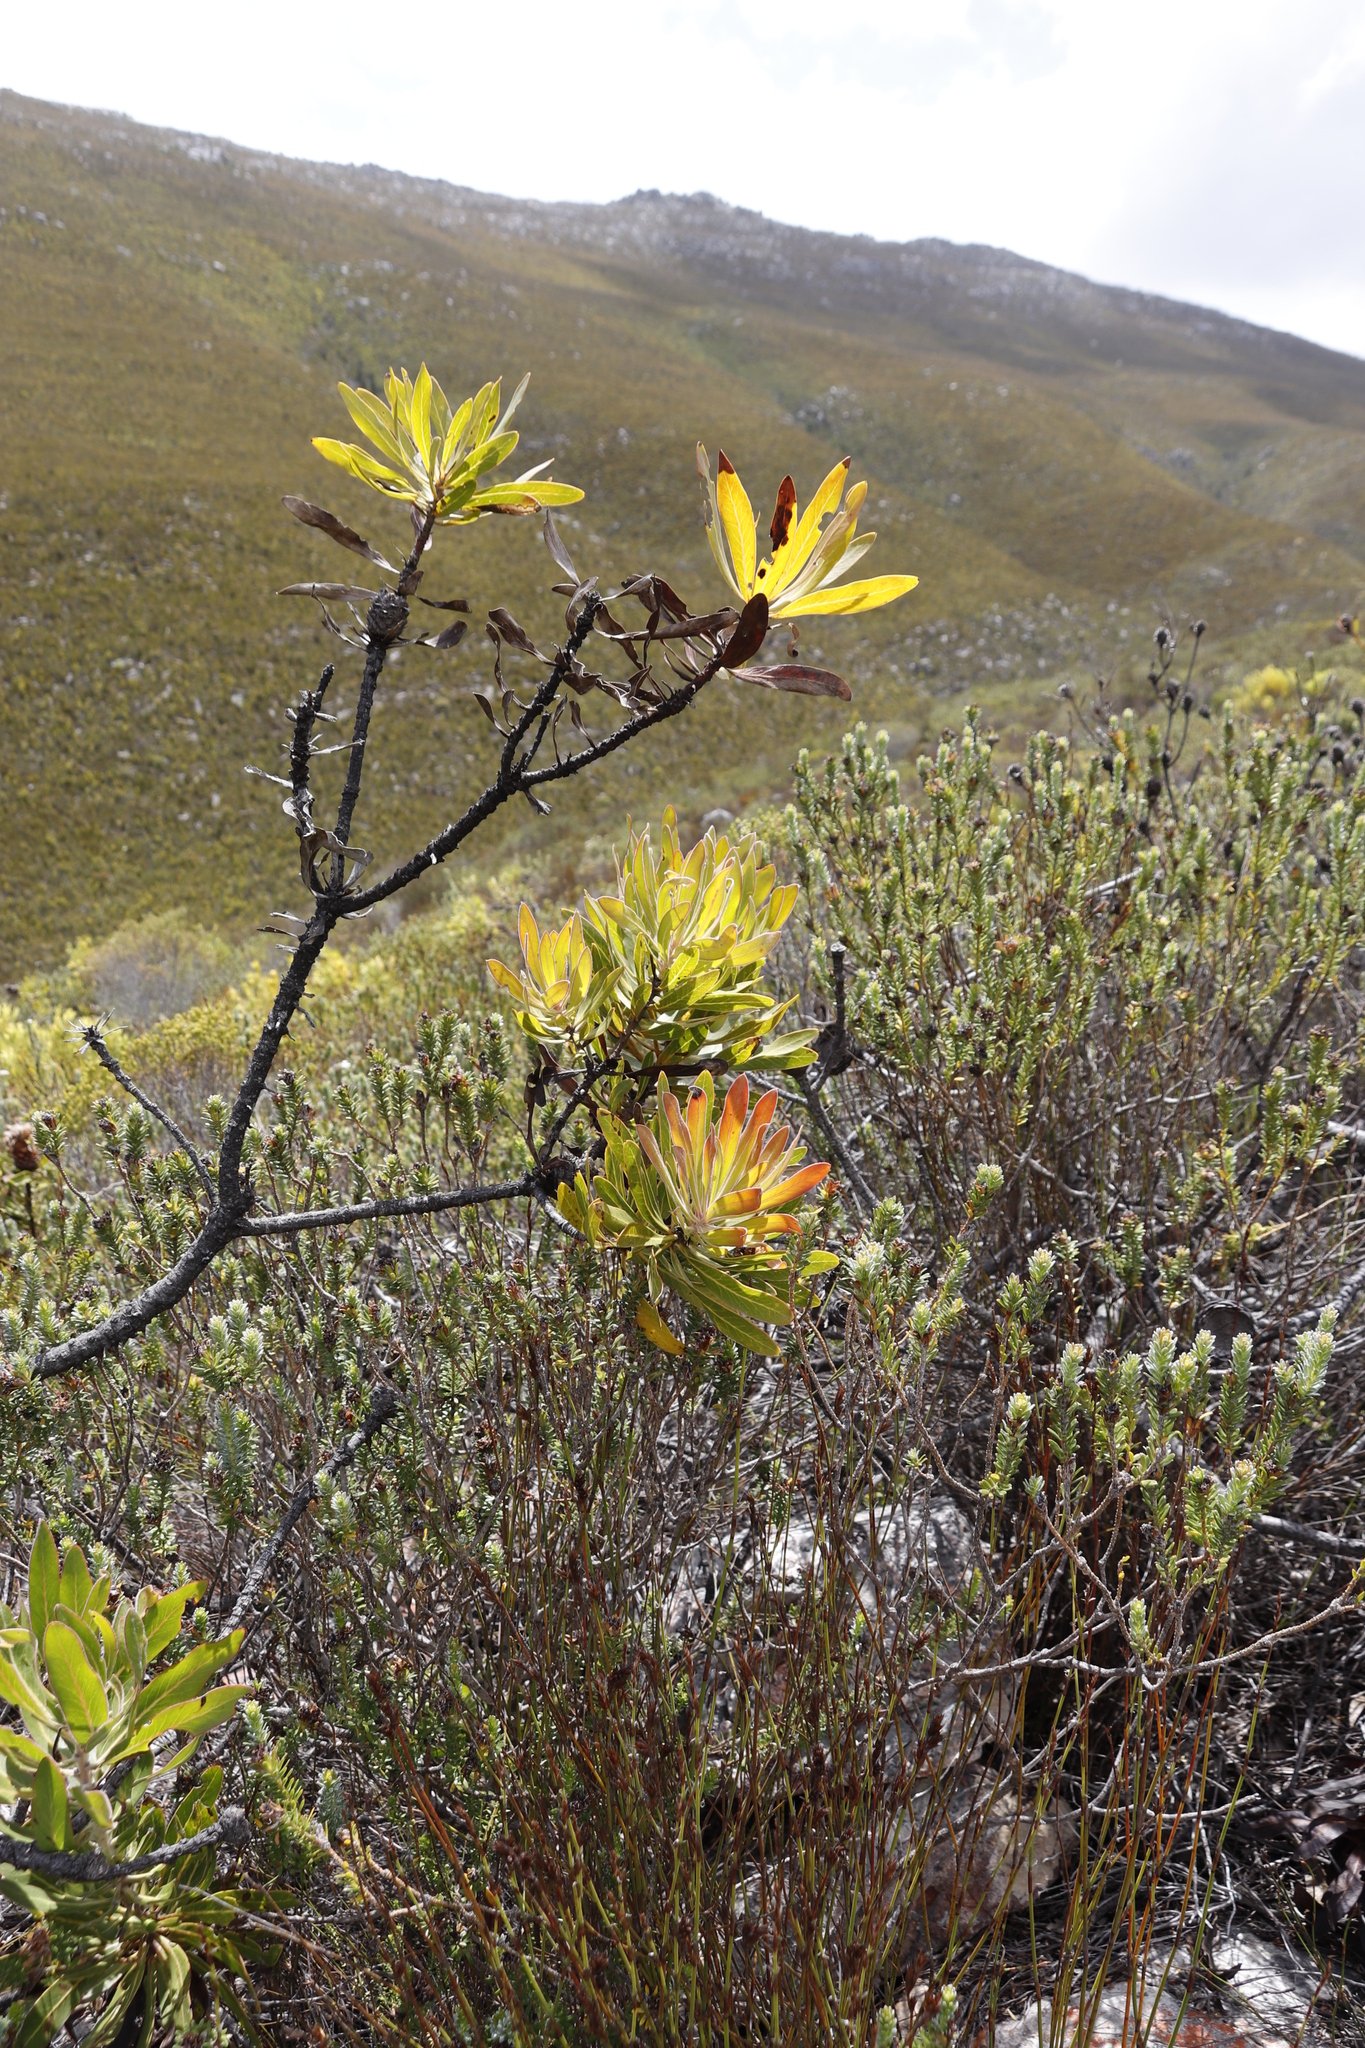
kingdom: Plantae
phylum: Tracheophyta
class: Magnoliopsida
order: Proteales
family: Proteaceae
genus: Protea
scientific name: Protea neriifolia
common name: Blue sugarbush
